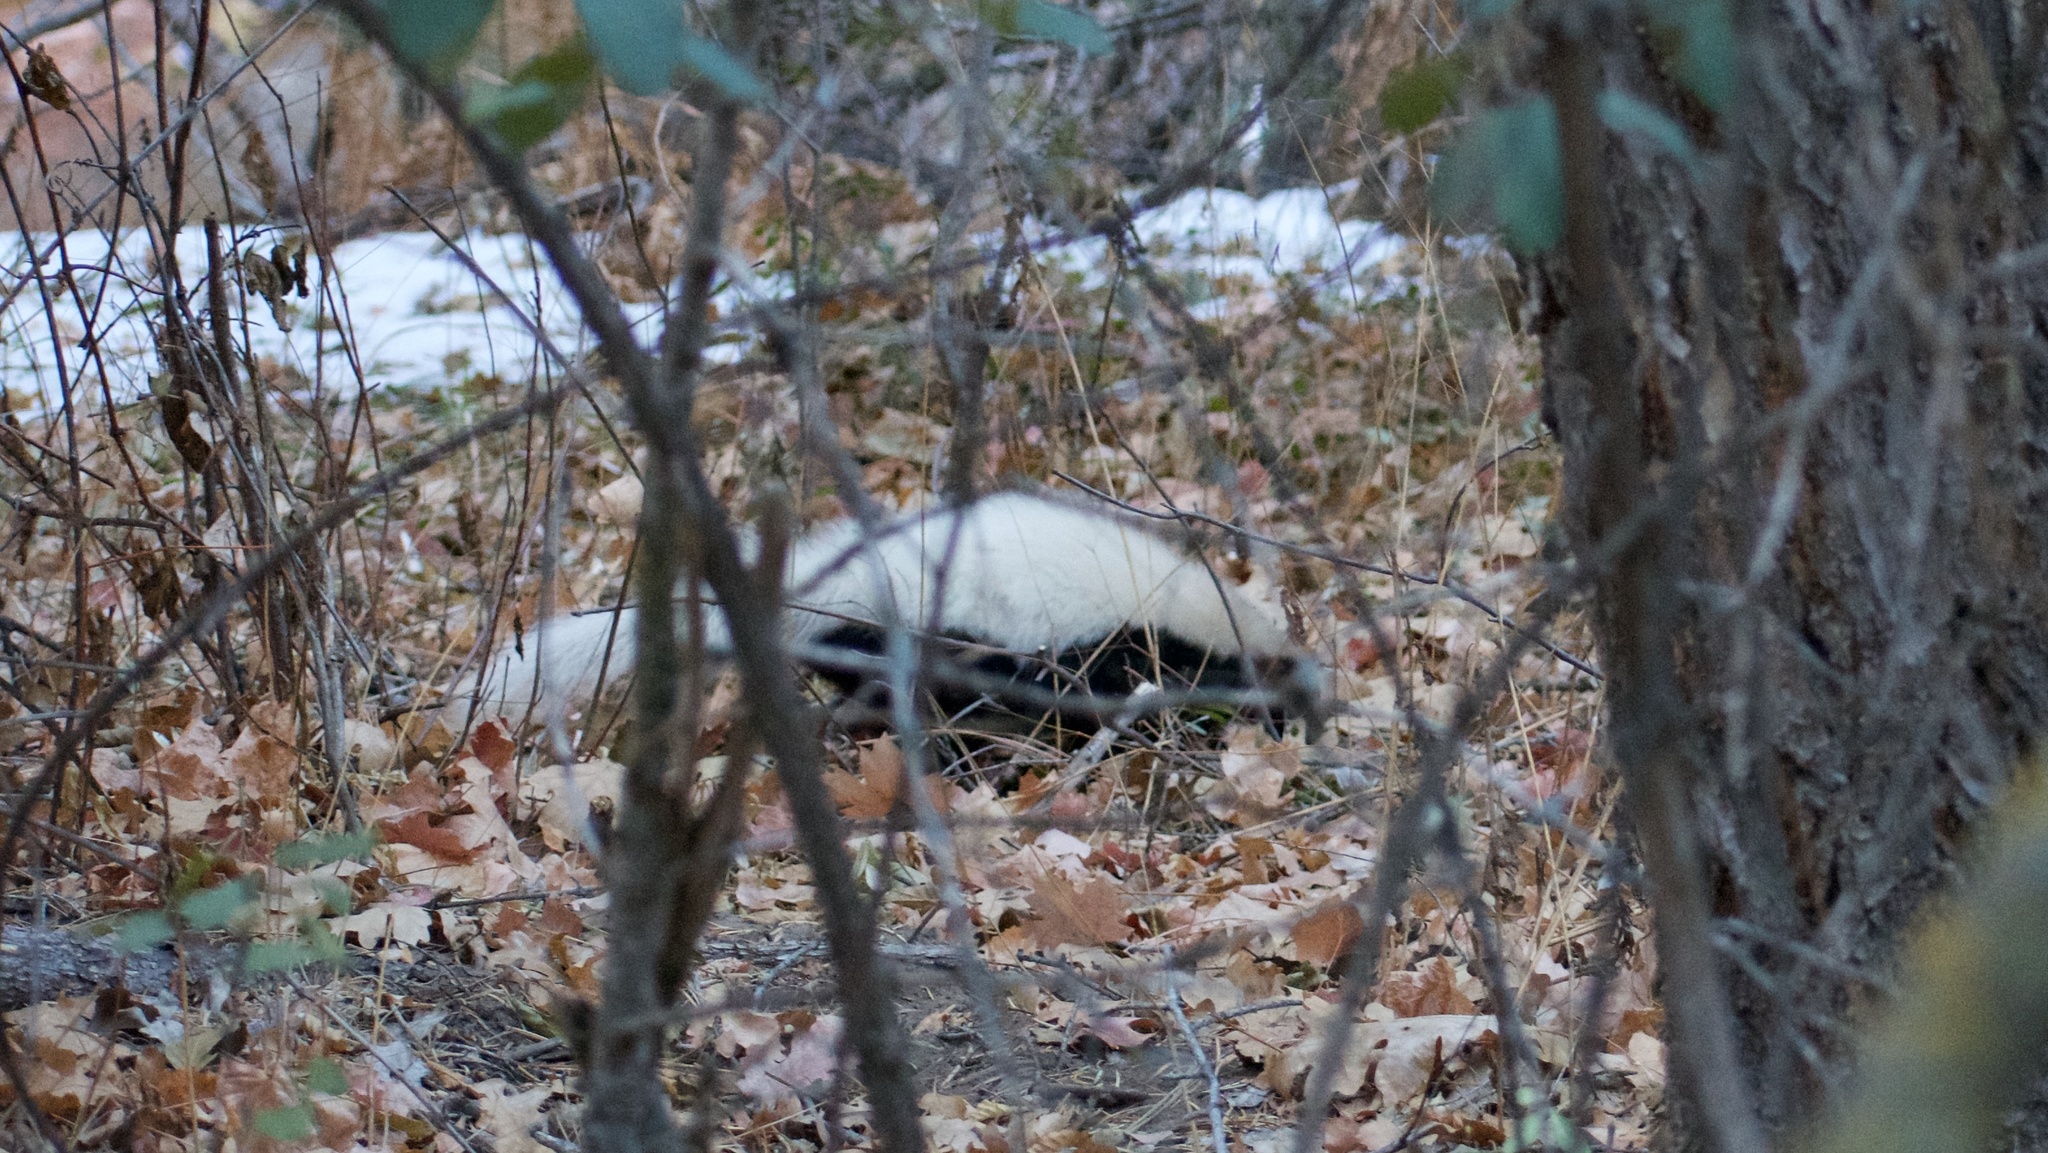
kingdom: Animalia
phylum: Chordata
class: Mammalia
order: Carnivora
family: Mephitidae
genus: Mephitis
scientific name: Mephitis mephitis
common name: Striped skunk
